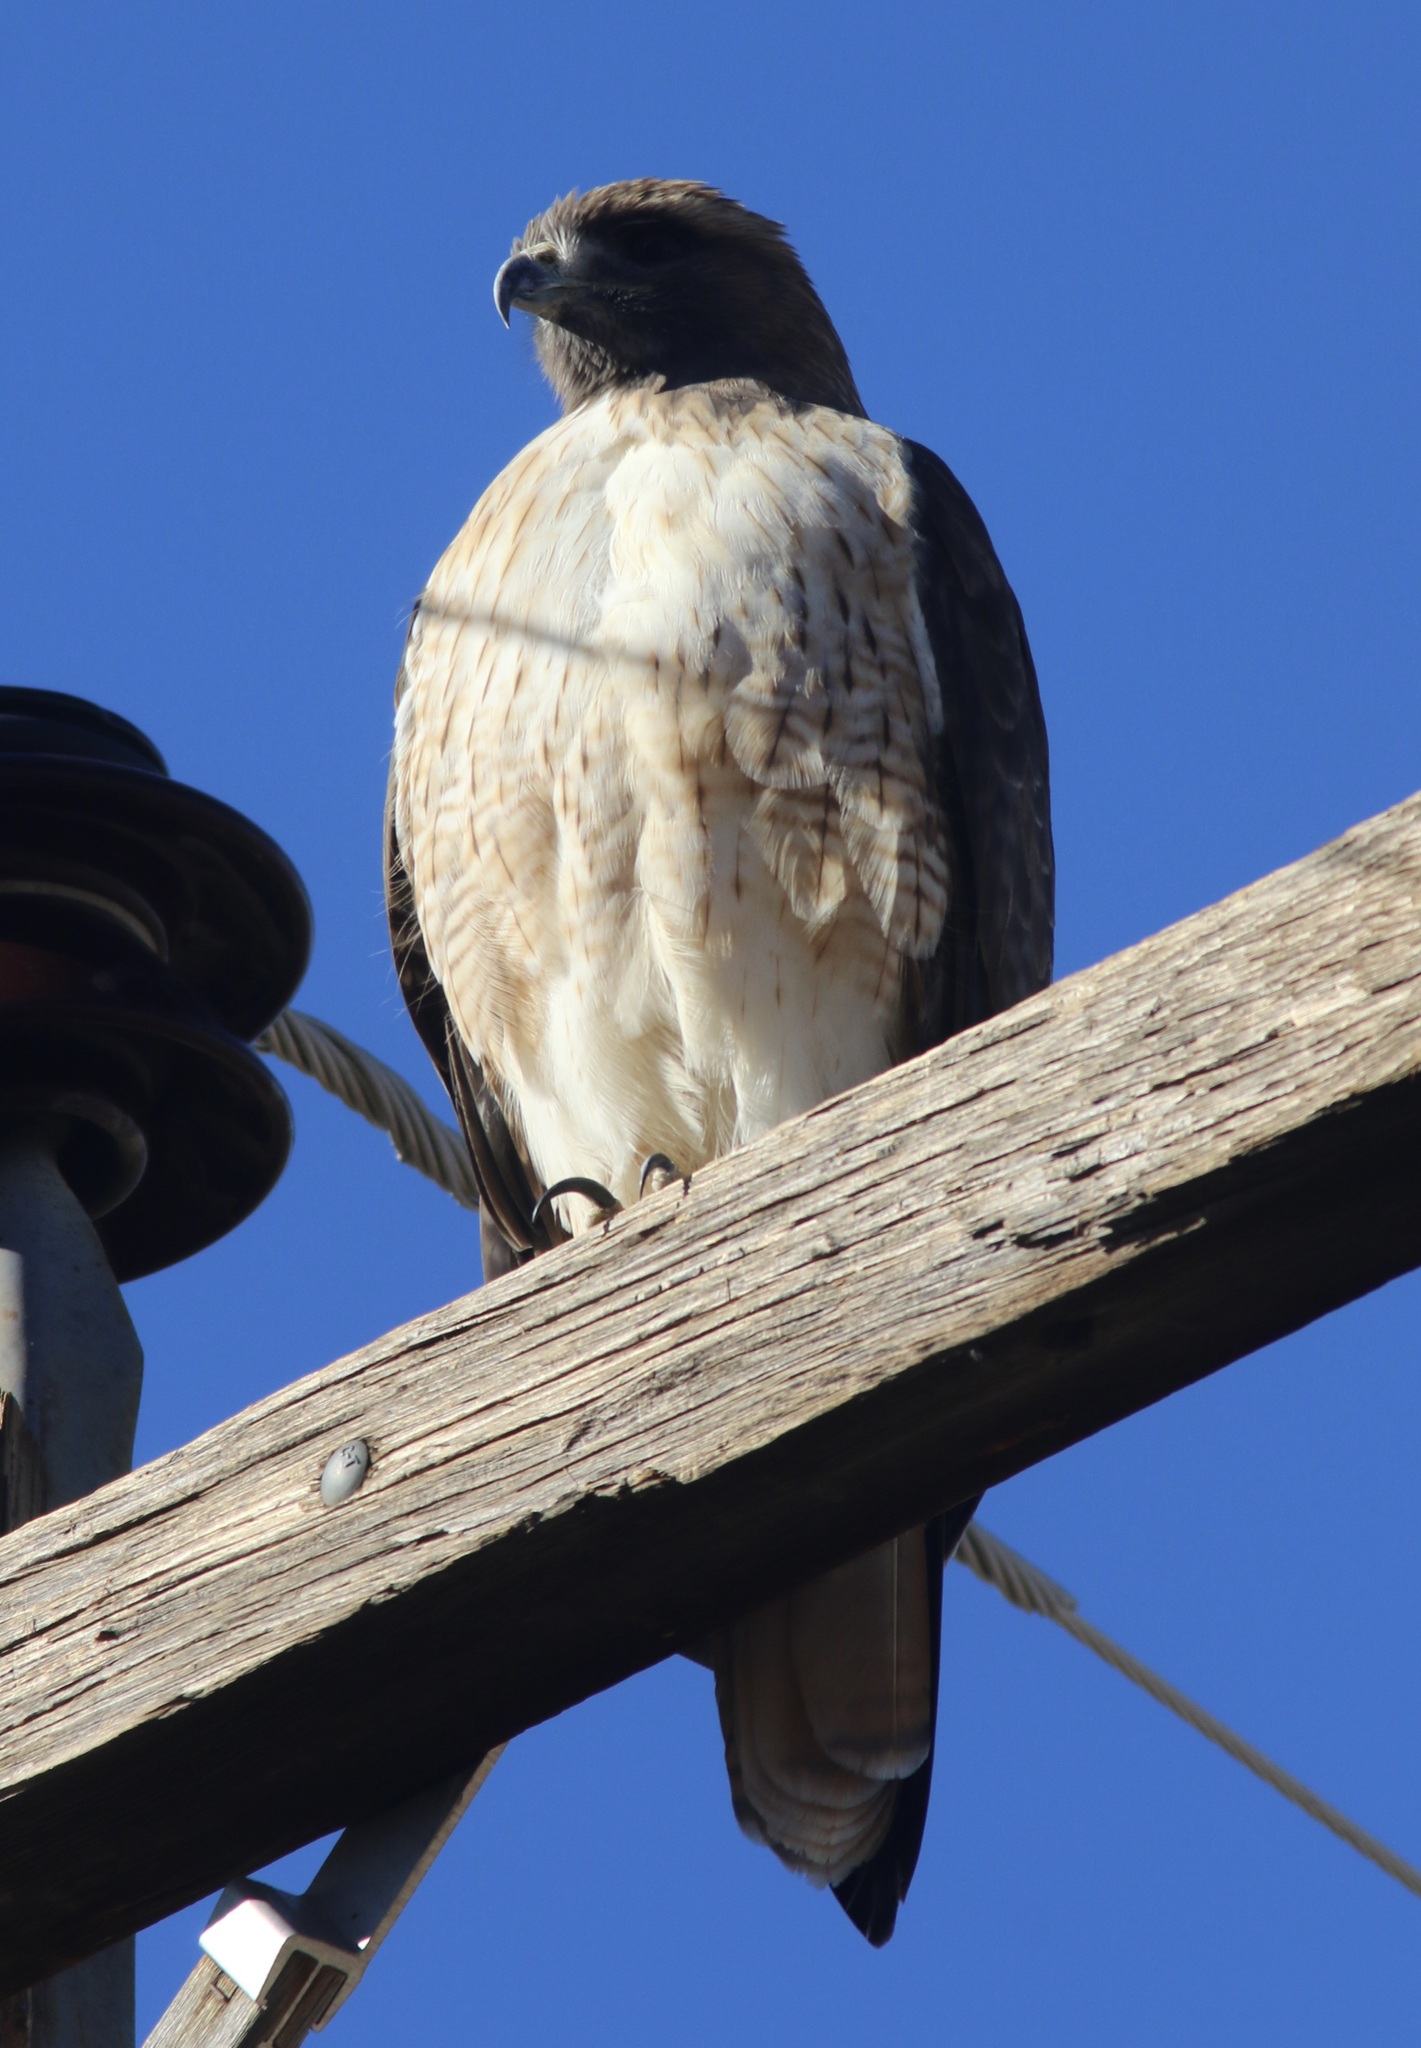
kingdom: Animalia
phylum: Chordata
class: Aves
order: Accipitriformes
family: Accipitridae
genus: Buteo
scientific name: Buteo jamaicensis
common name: Red-tailed hawk
